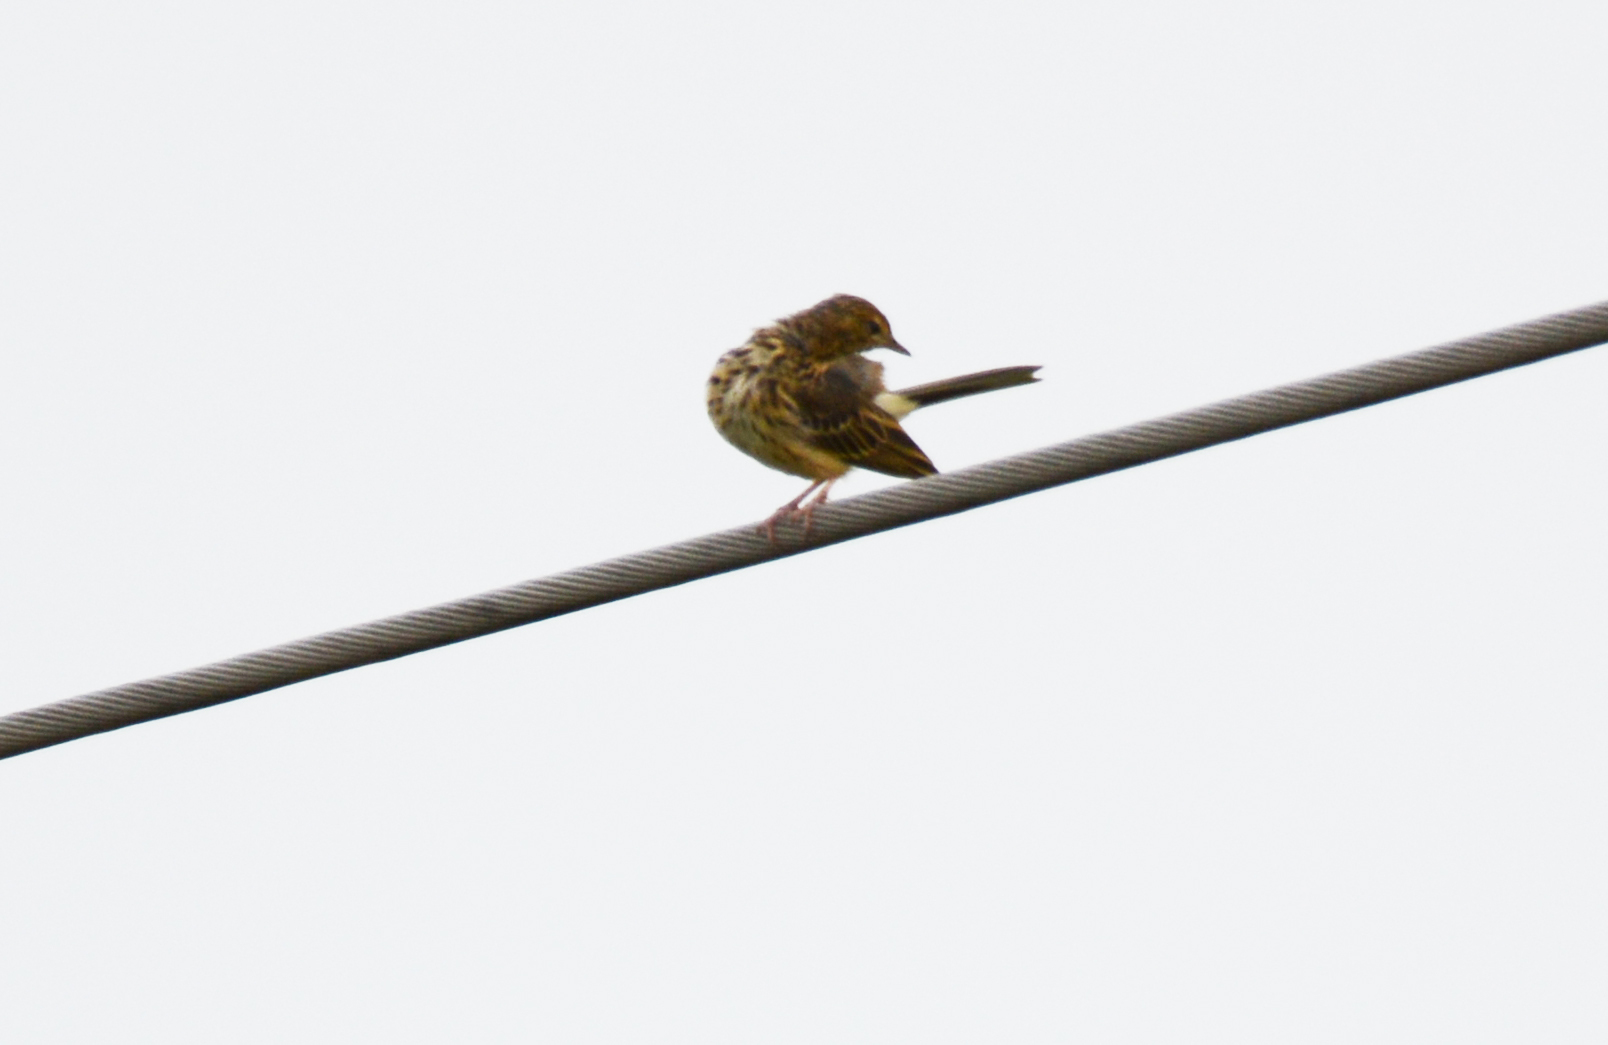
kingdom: Animalia
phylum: Chordata
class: Aves
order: Passeriformes
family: Motacillidae
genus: Anthus
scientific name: Anthus trivialis
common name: Tree pipit
